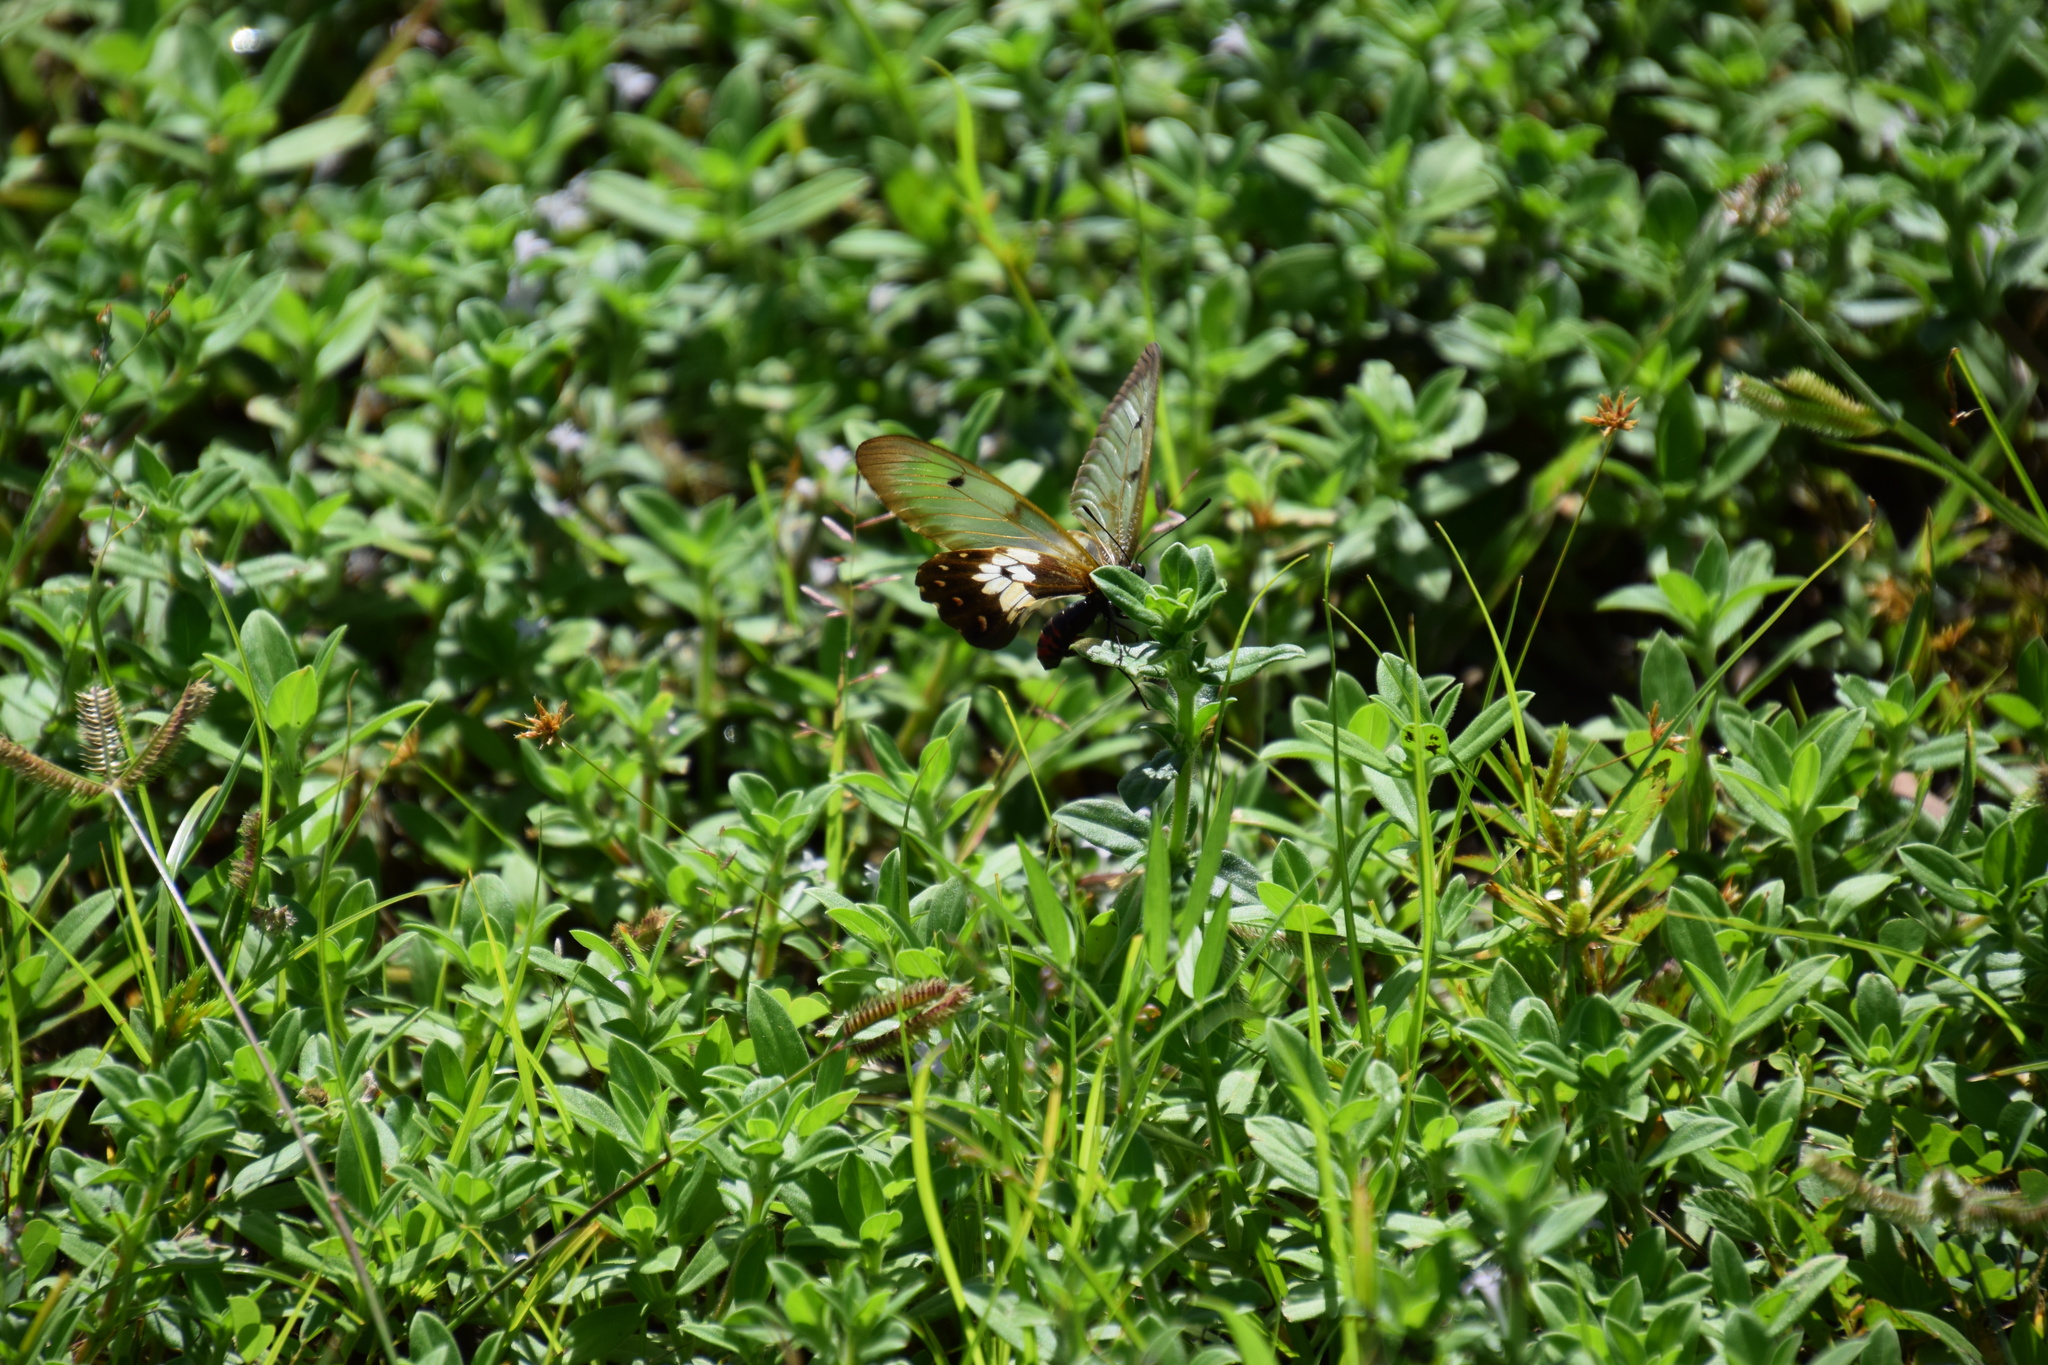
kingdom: Animalia
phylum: Arthropoda
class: Insecta
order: Lepidoptera
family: Papilionidae
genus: Cressida
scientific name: Cressida cressida
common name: Big greasy
